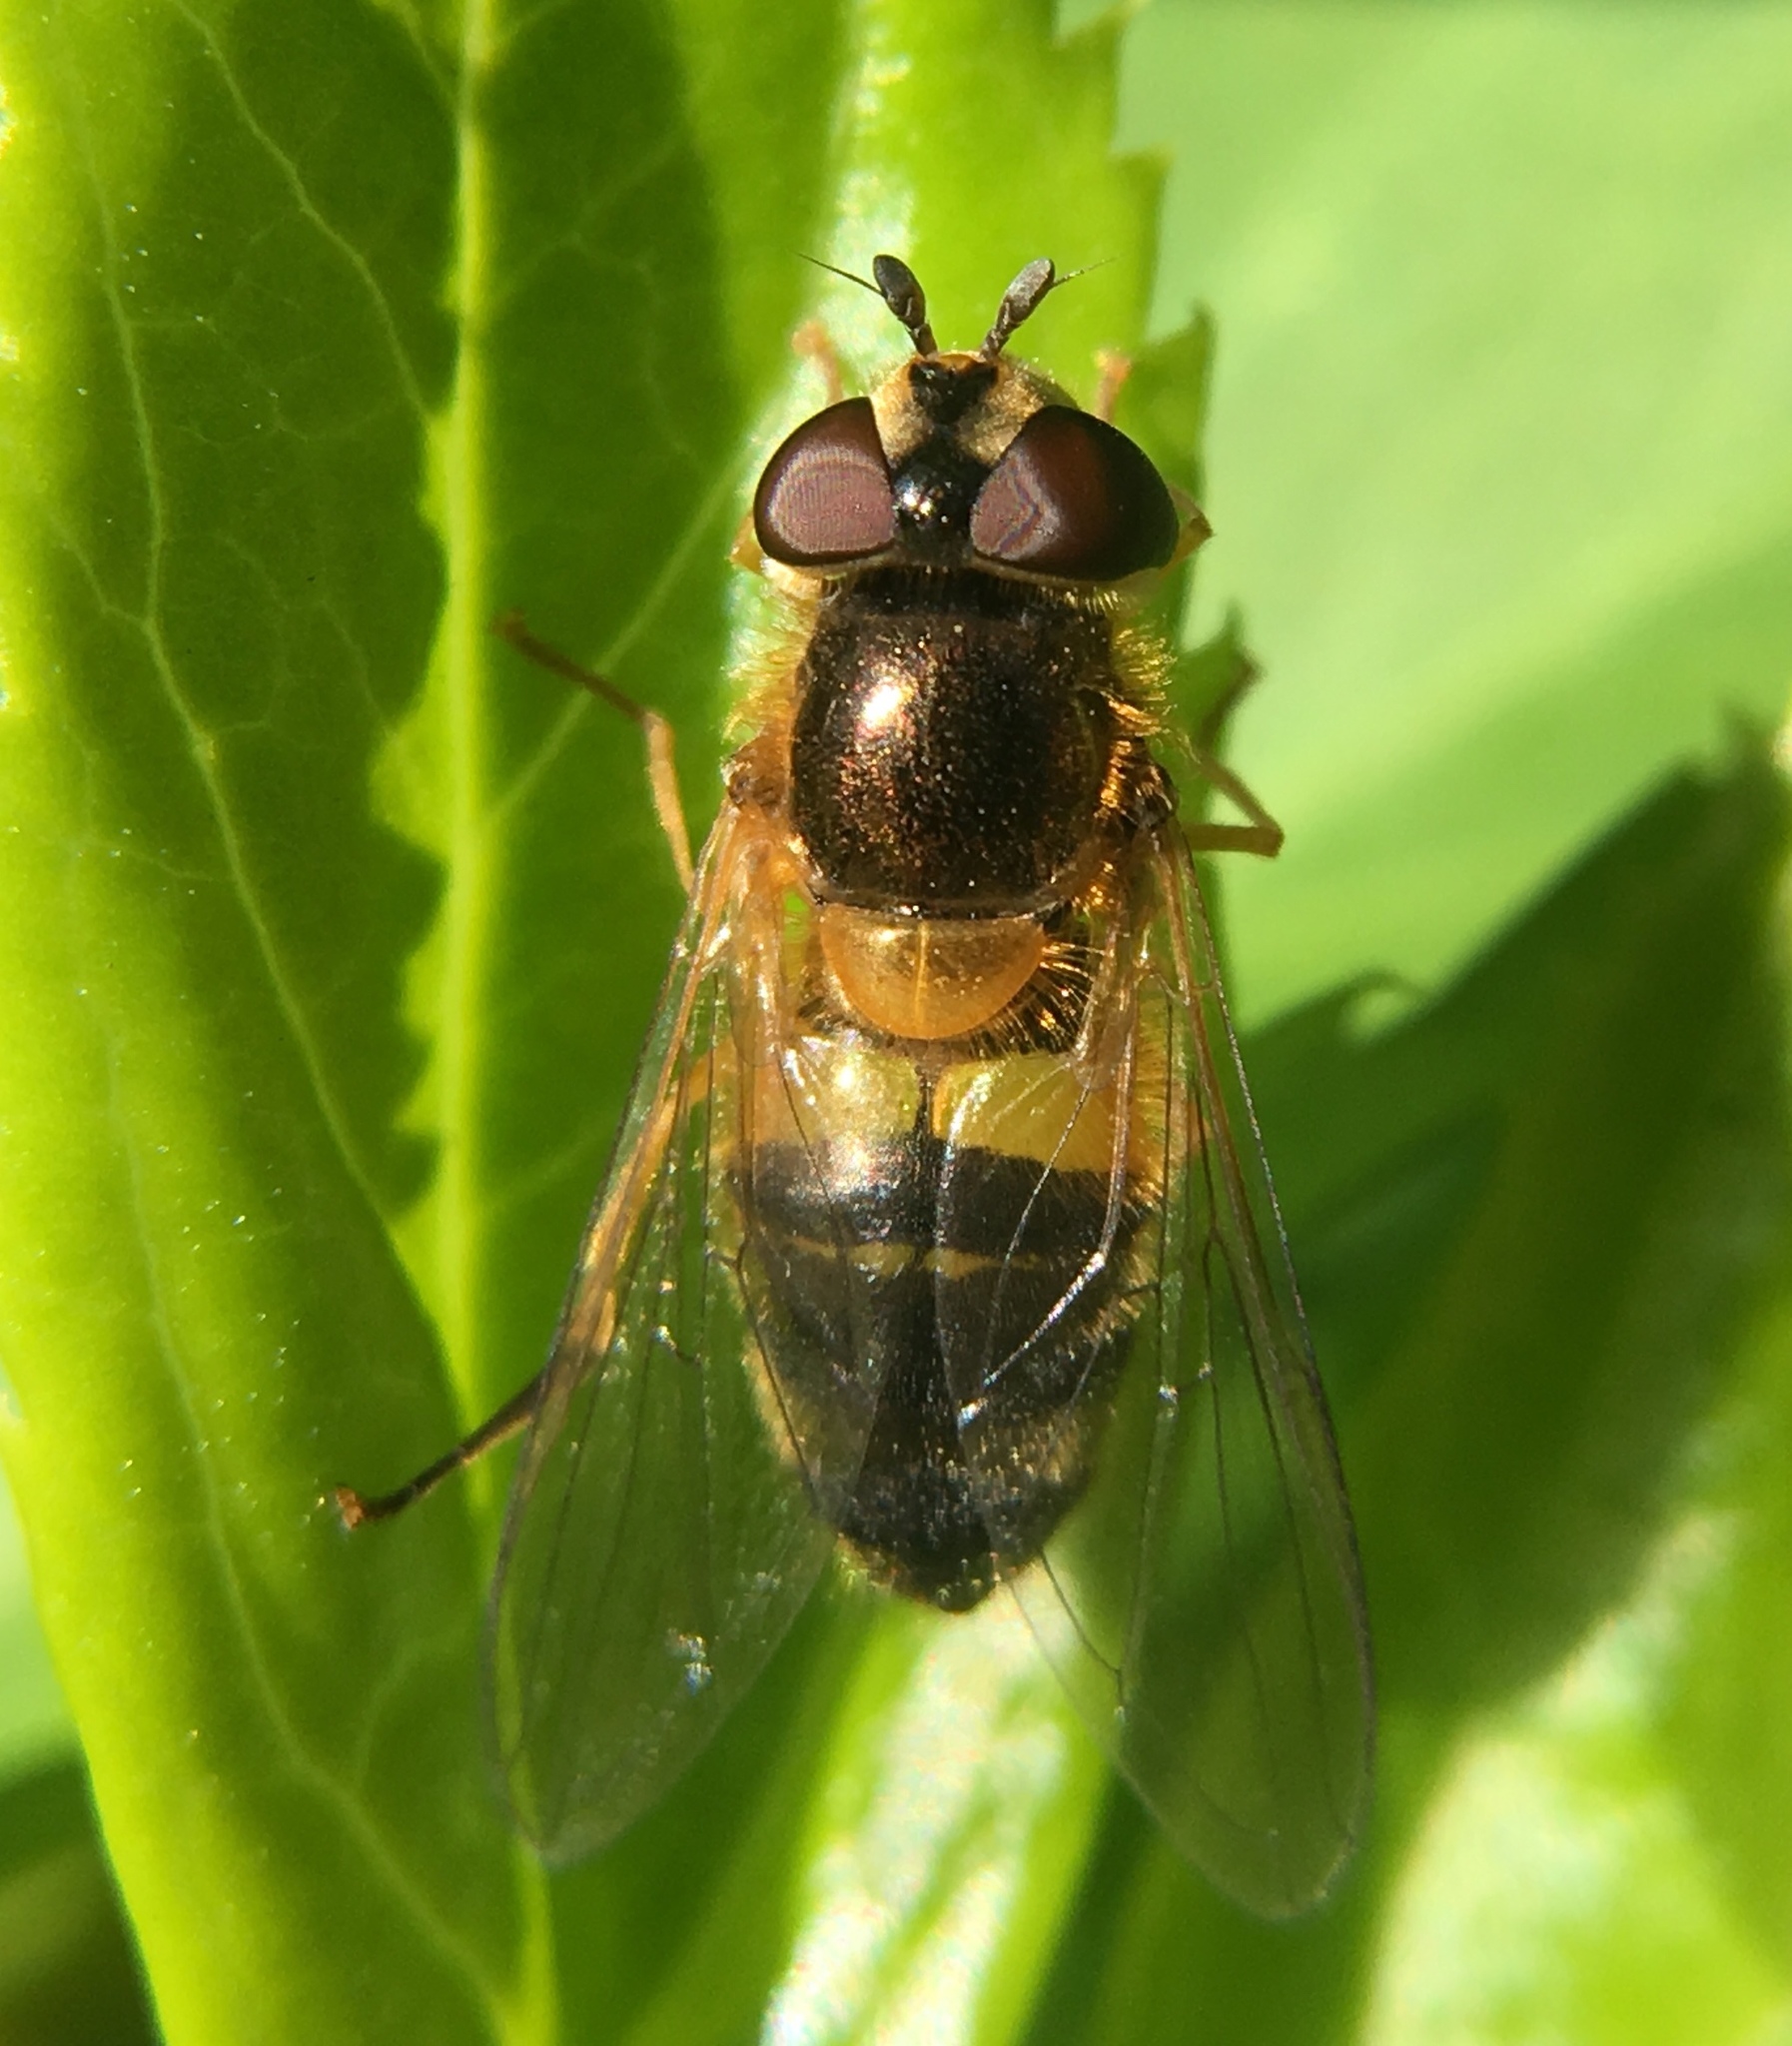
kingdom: Animalia
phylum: Arthropoda
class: Insecta
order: Diptera
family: Syrphidae
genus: Epistrophe
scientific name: Epistrophe eligans
